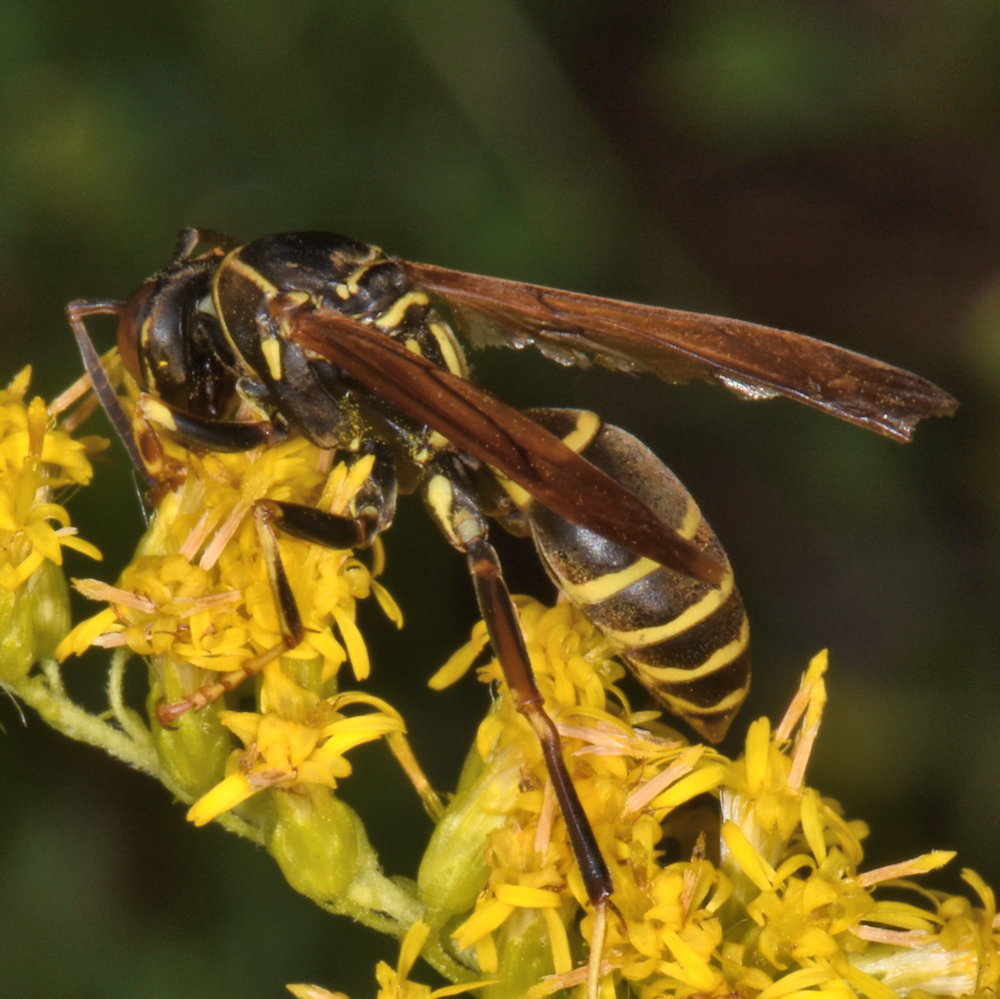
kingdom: Animalia
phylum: Arthropoda
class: Insecta
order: Hymenoptera
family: Eumenidae
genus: Polistes
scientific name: Polistes fuscatus
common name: Dark paper wasp
